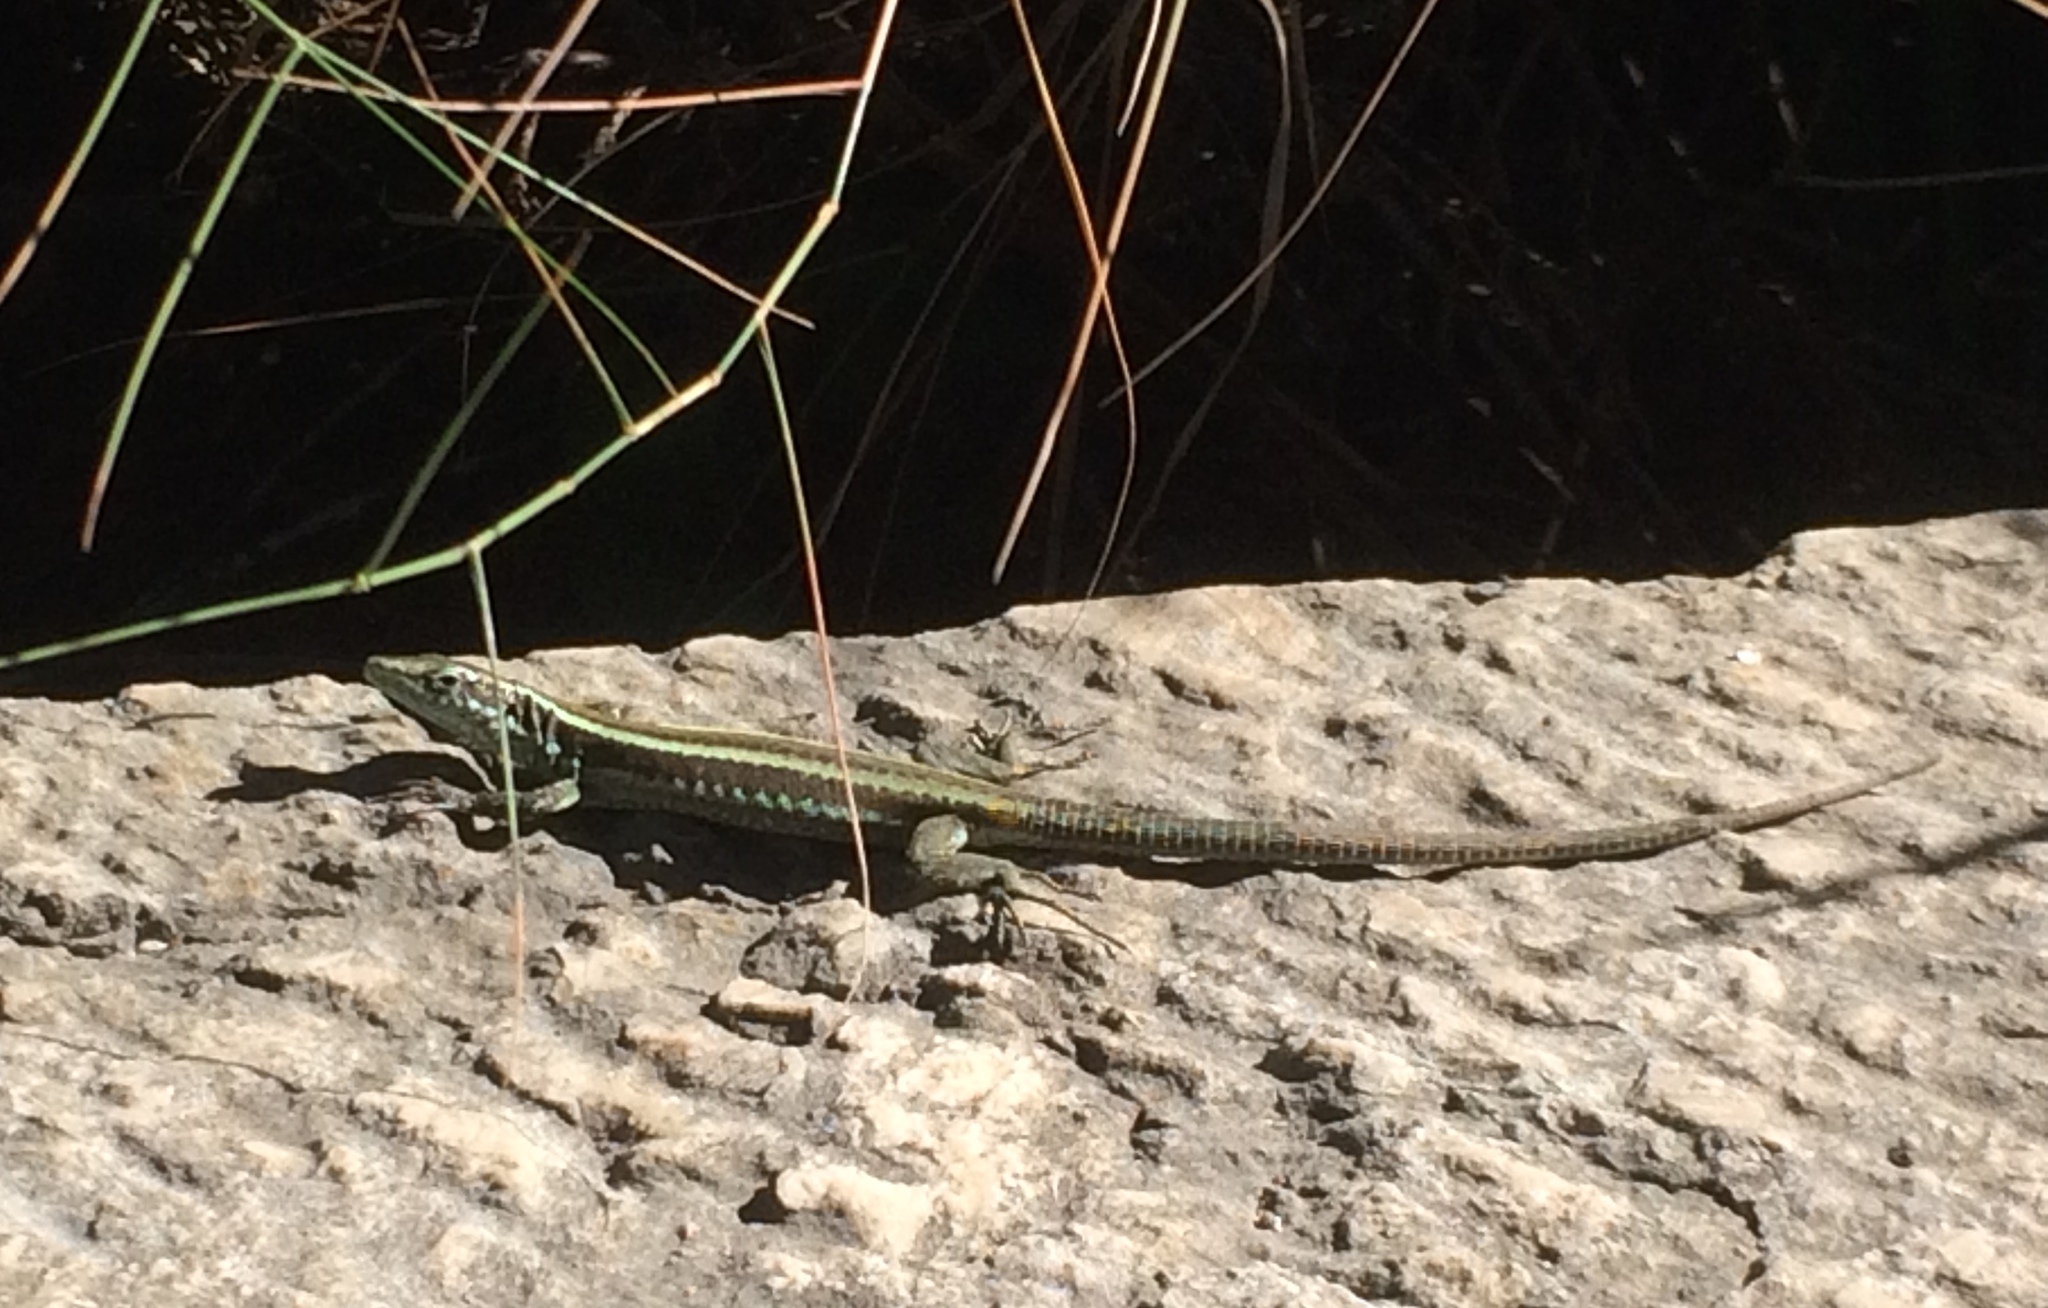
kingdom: Animalia
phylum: Chordata
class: Squamata
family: Lacertidae
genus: Teira
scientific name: Teira dugesii
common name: Madeira lizard
